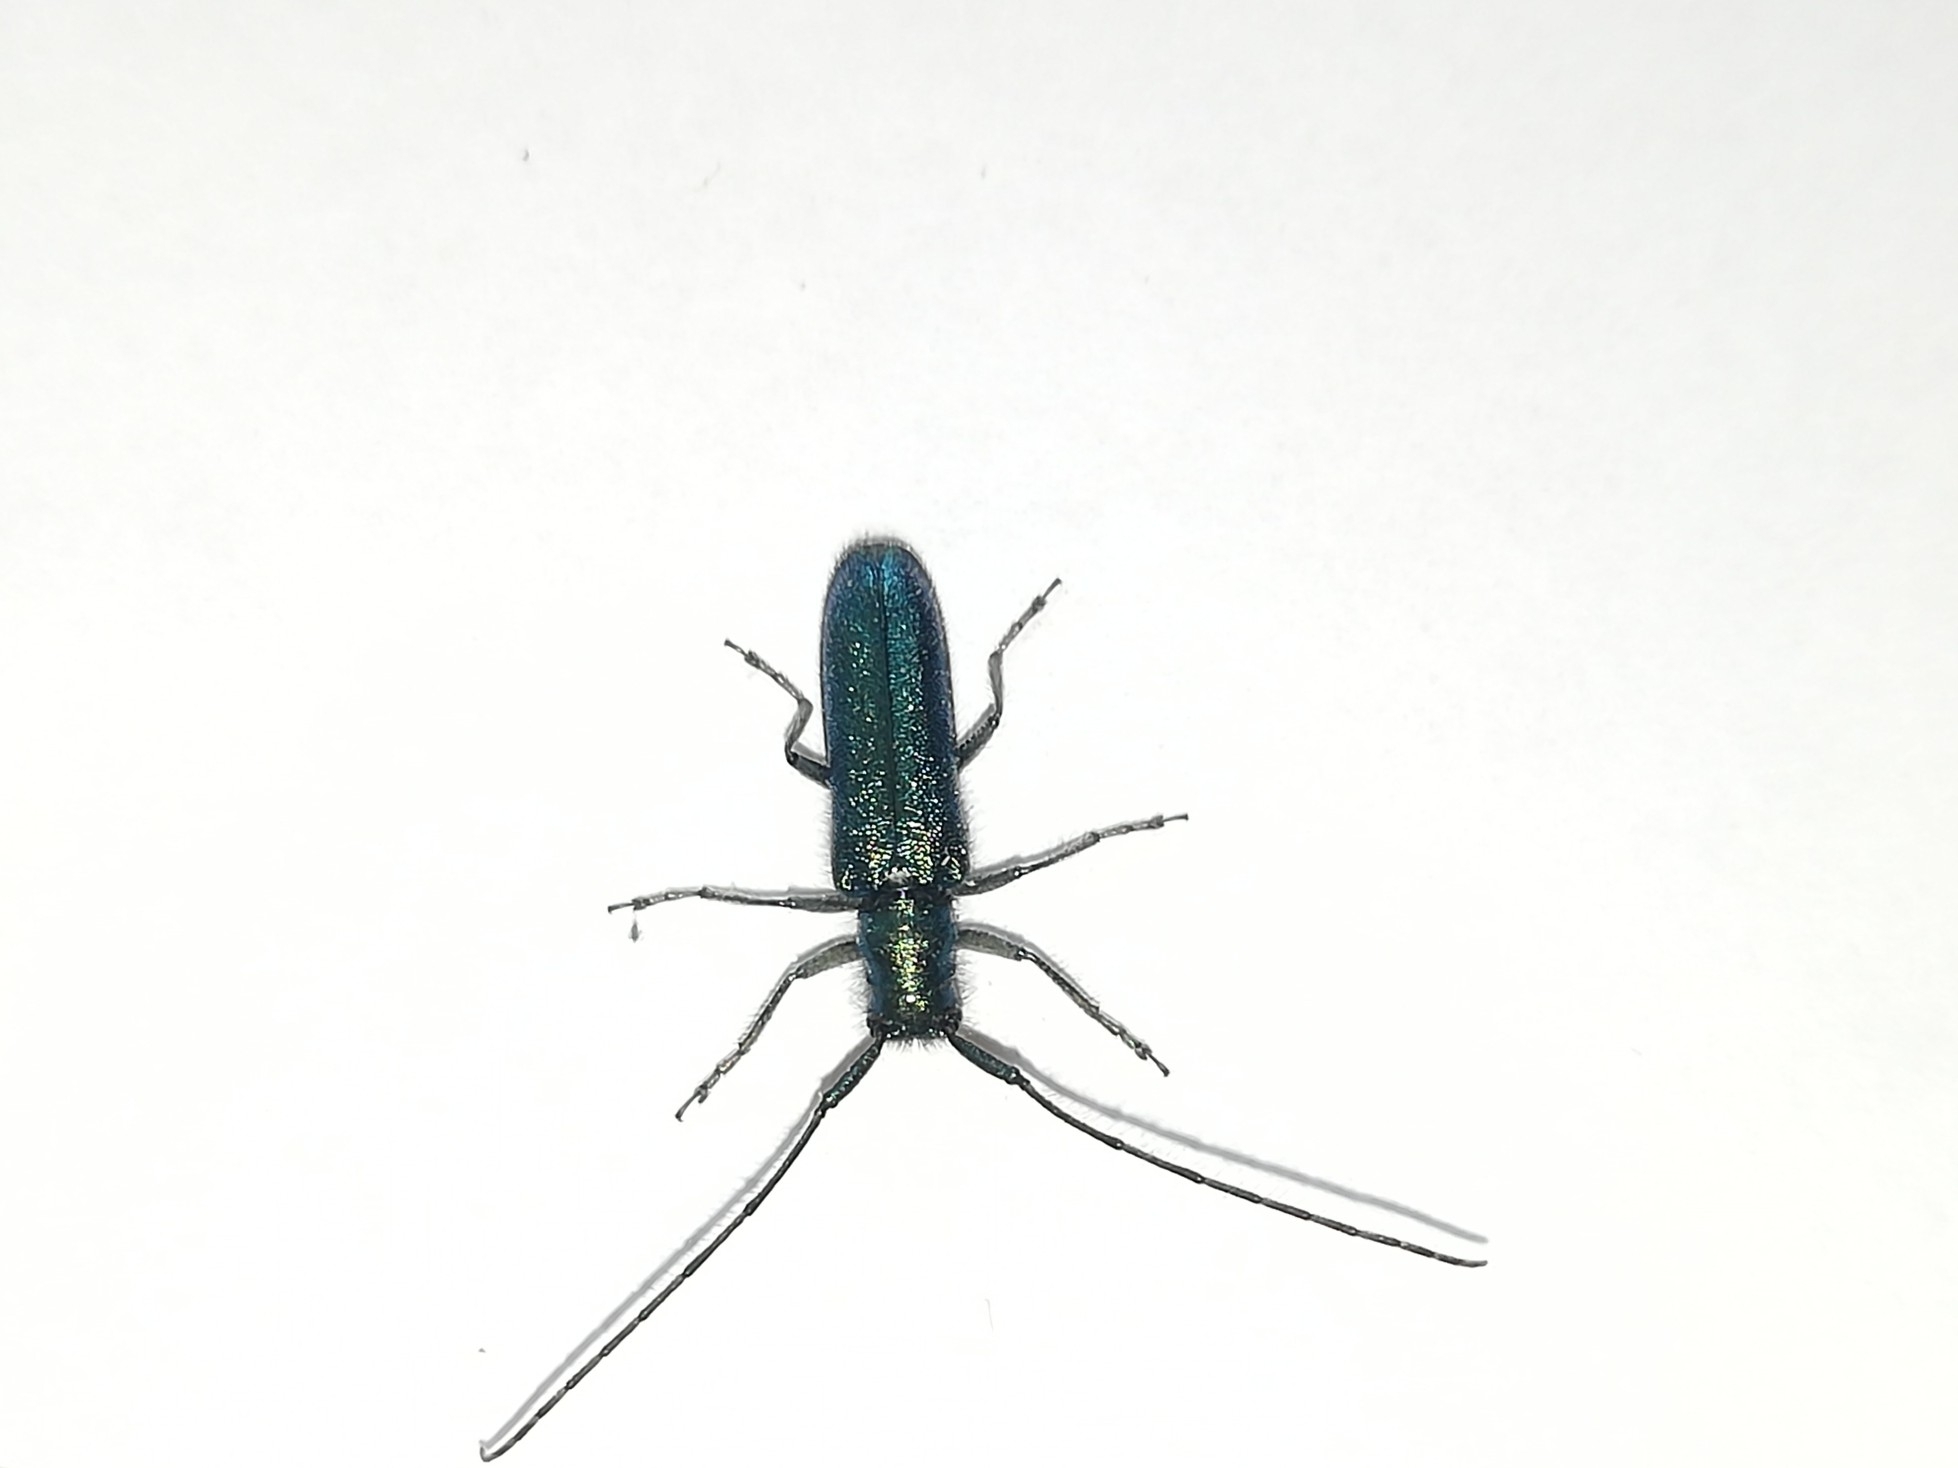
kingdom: Animalia
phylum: Arthropoda
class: Insecta
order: Coleoptera
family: Cerambycidae
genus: Agapanthia
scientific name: Agapanthia intermedia
